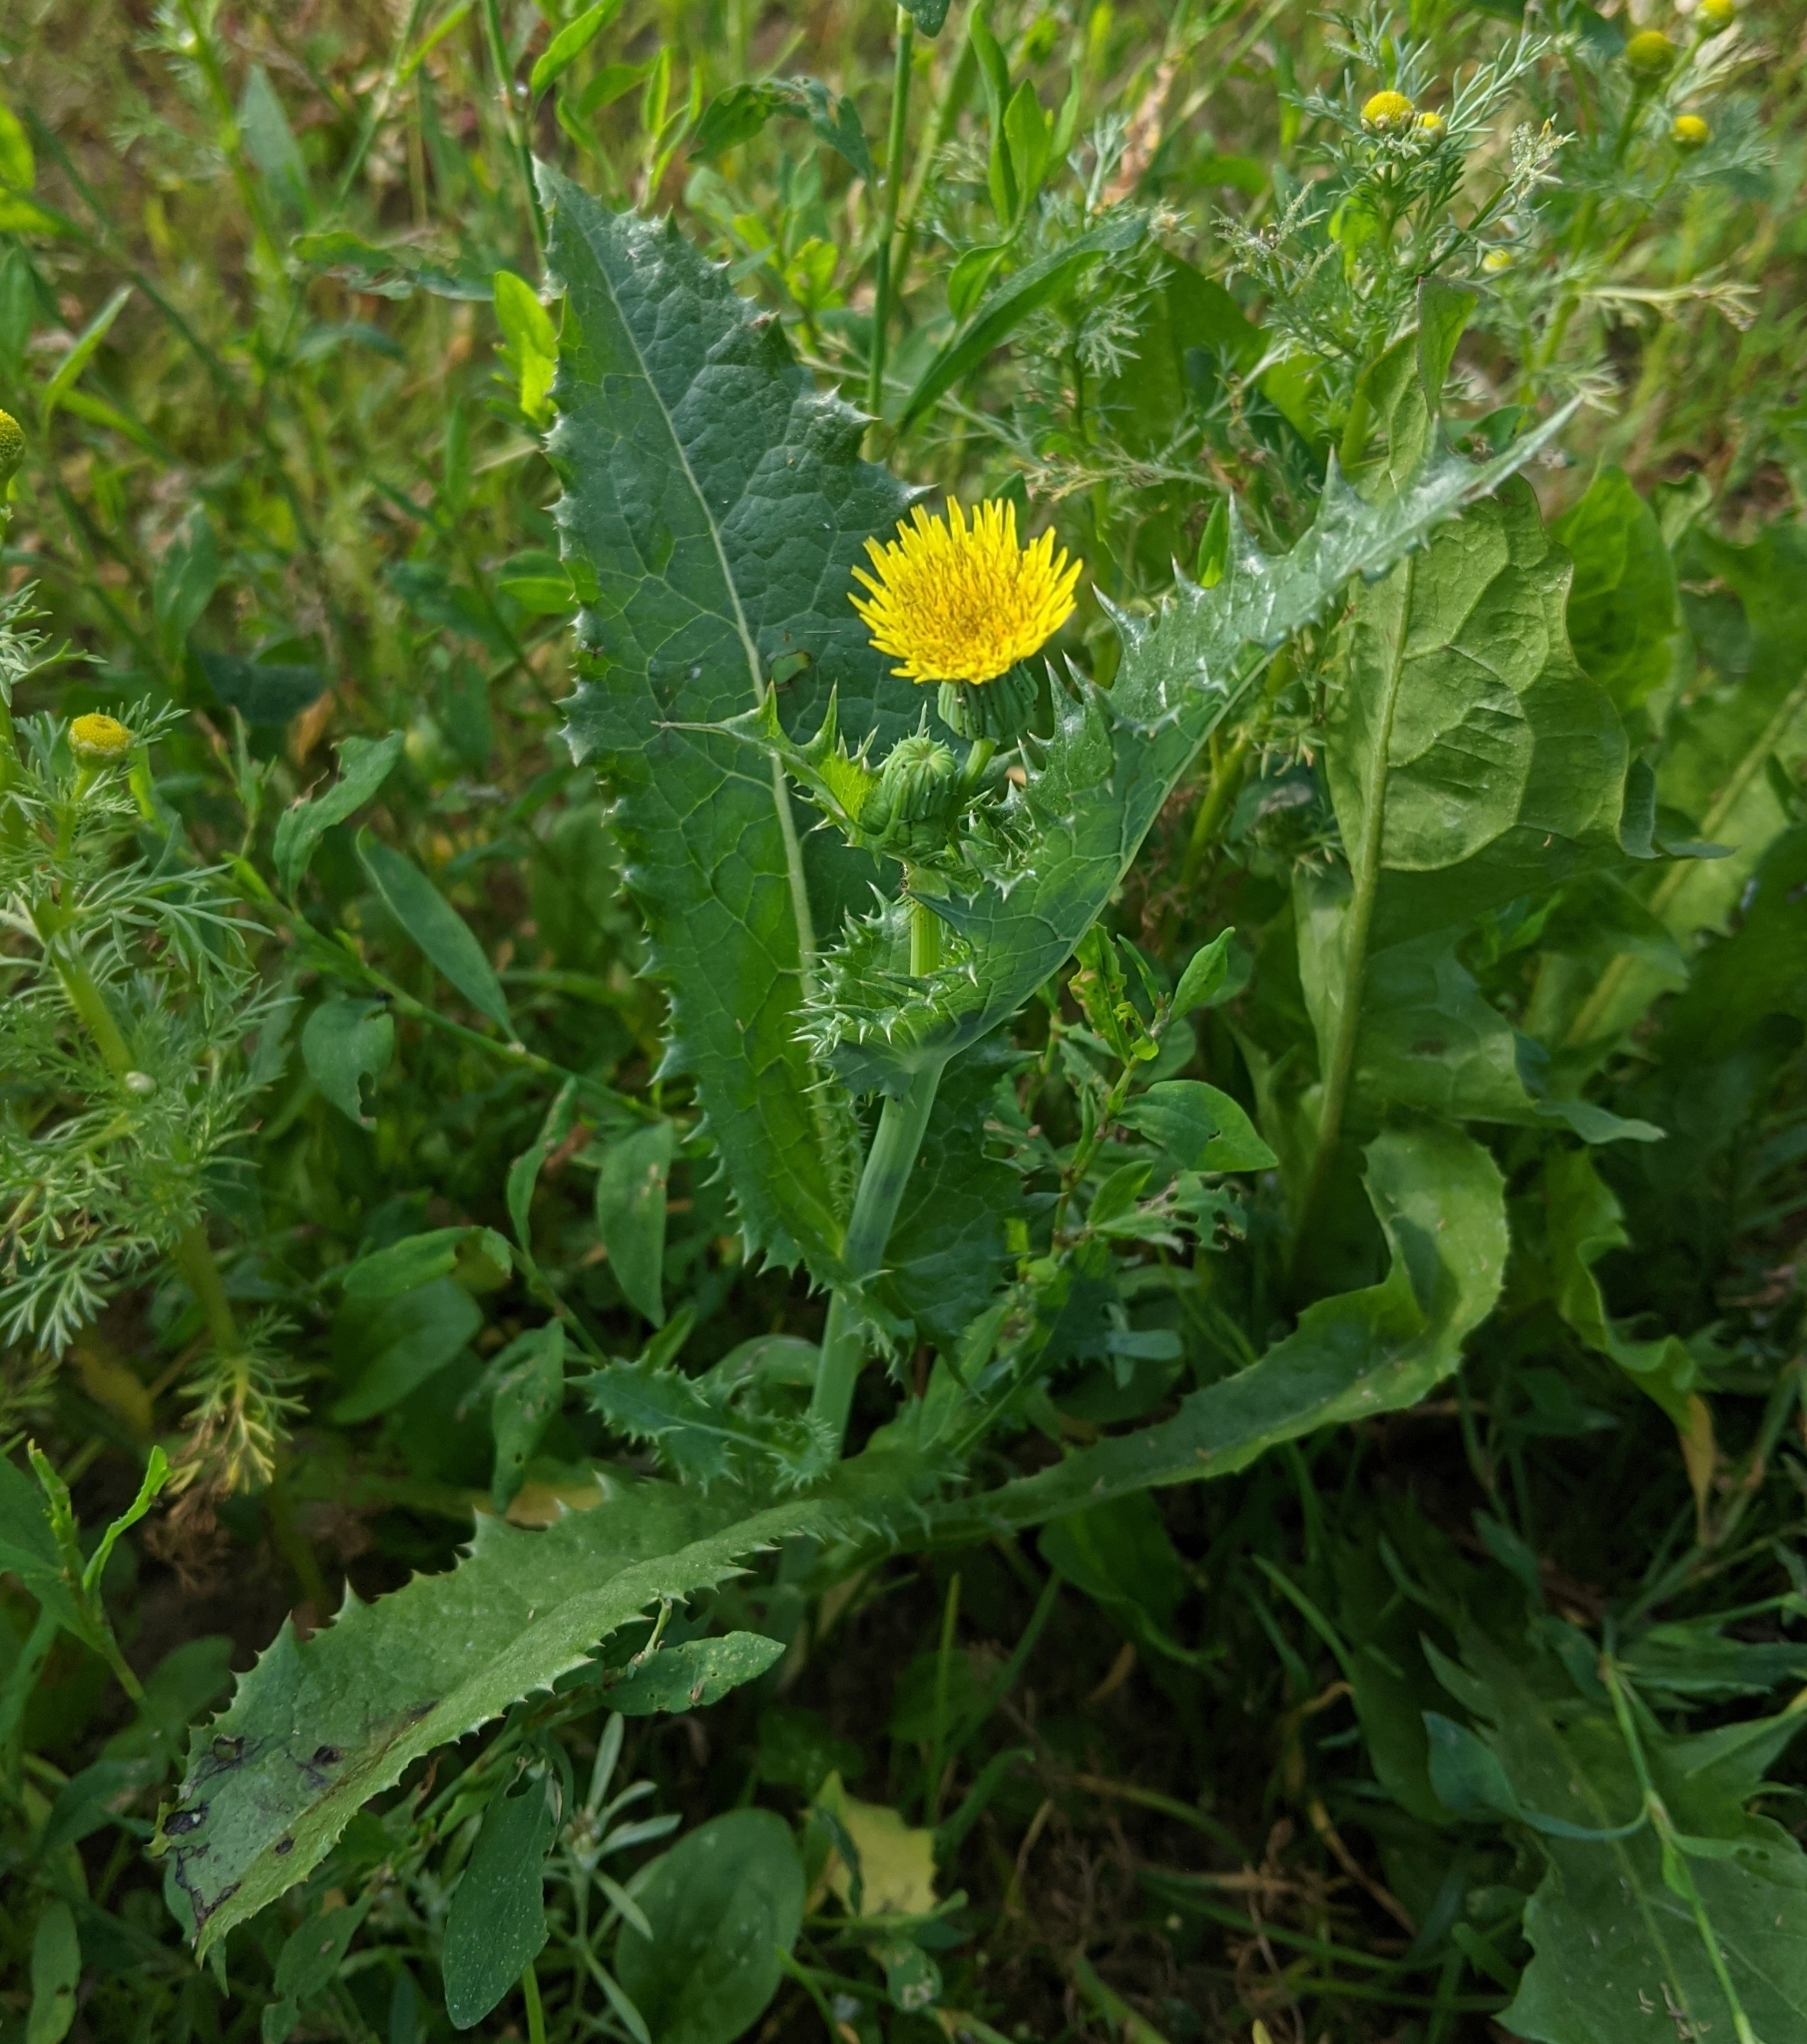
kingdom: Plantae
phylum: Tracheophyta
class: Magnoliopsida
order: Asterales
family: Asteraceae
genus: Sonchus
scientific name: Sonchus oleraceus
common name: Common sowthistle
